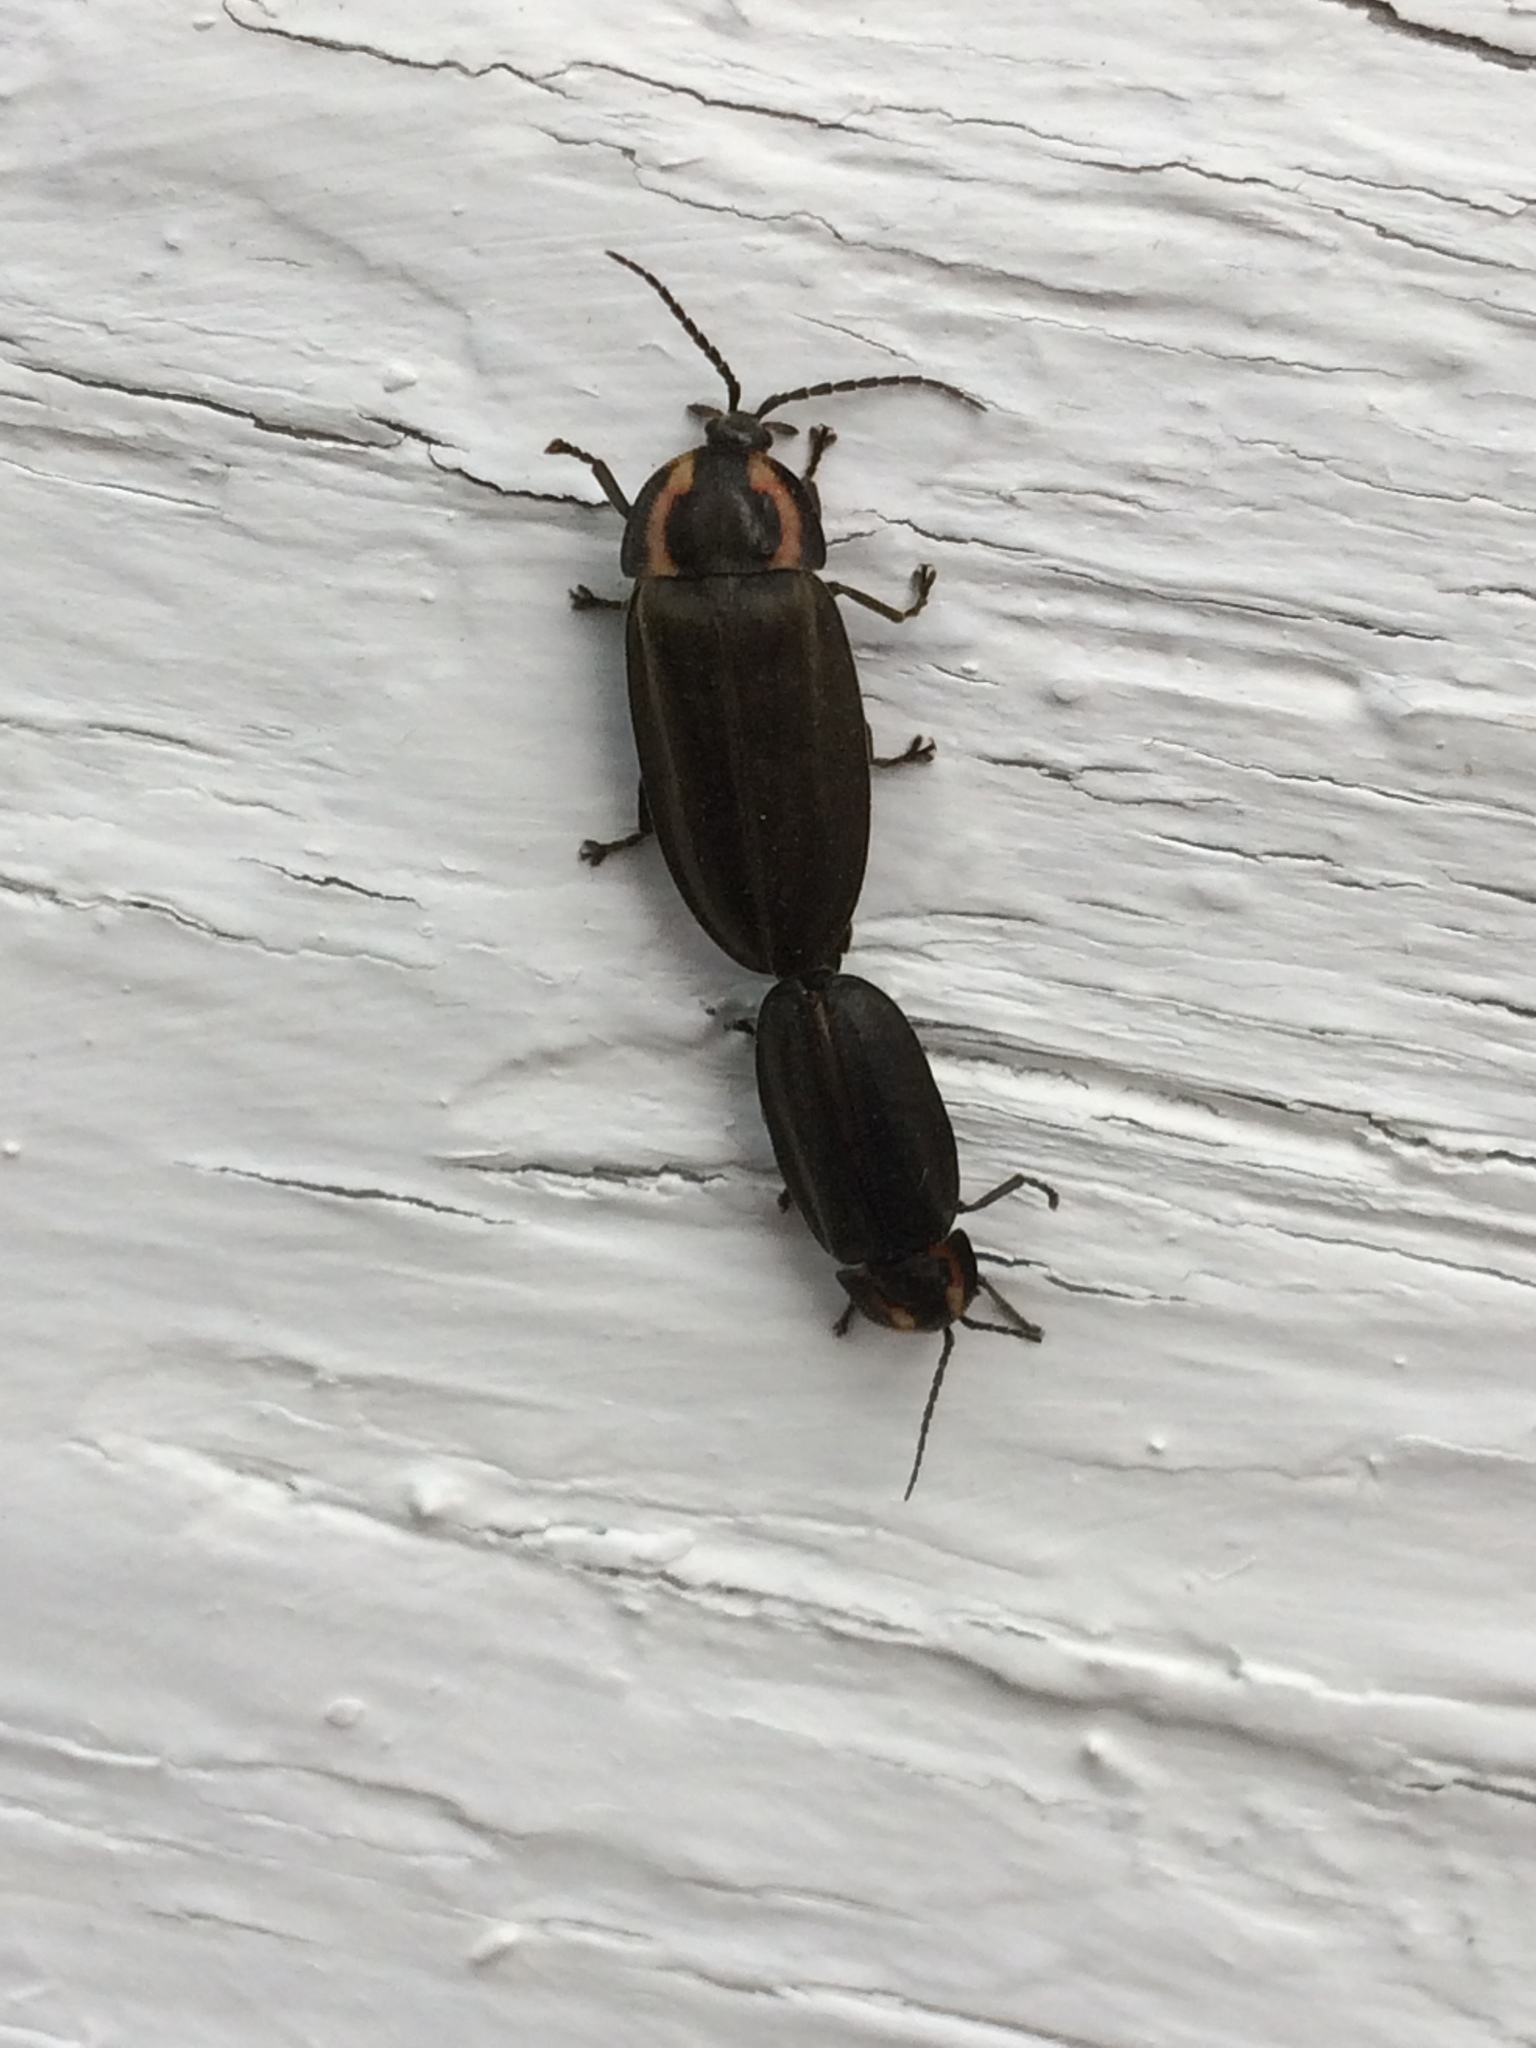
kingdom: Animalia
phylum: Arthropoda
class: Insecta
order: Coleoptera
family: Lampyridae
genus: Photinus
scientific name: Photinus corrusca
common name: Winter firefly
